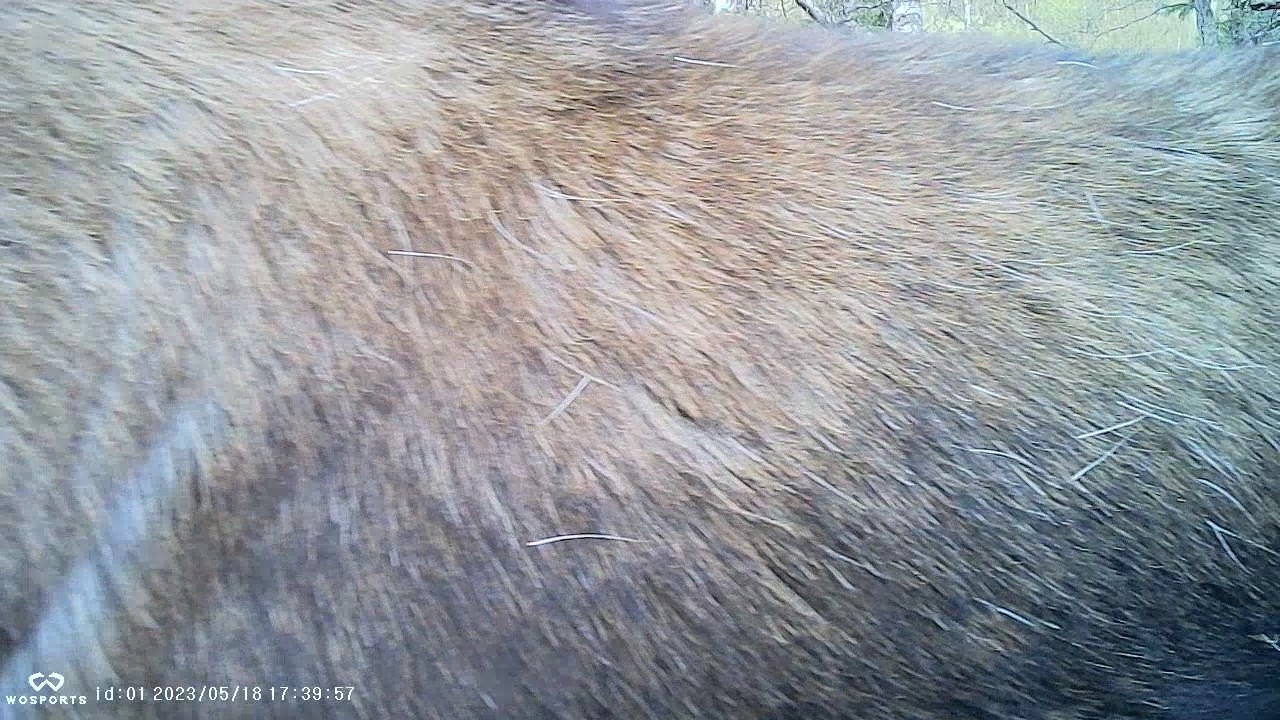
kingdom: Animalia
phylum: Chordata
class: Mammalia
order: Artiodactyla
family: Cervidae
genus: Alces
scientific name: Alces alces
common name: Moose
